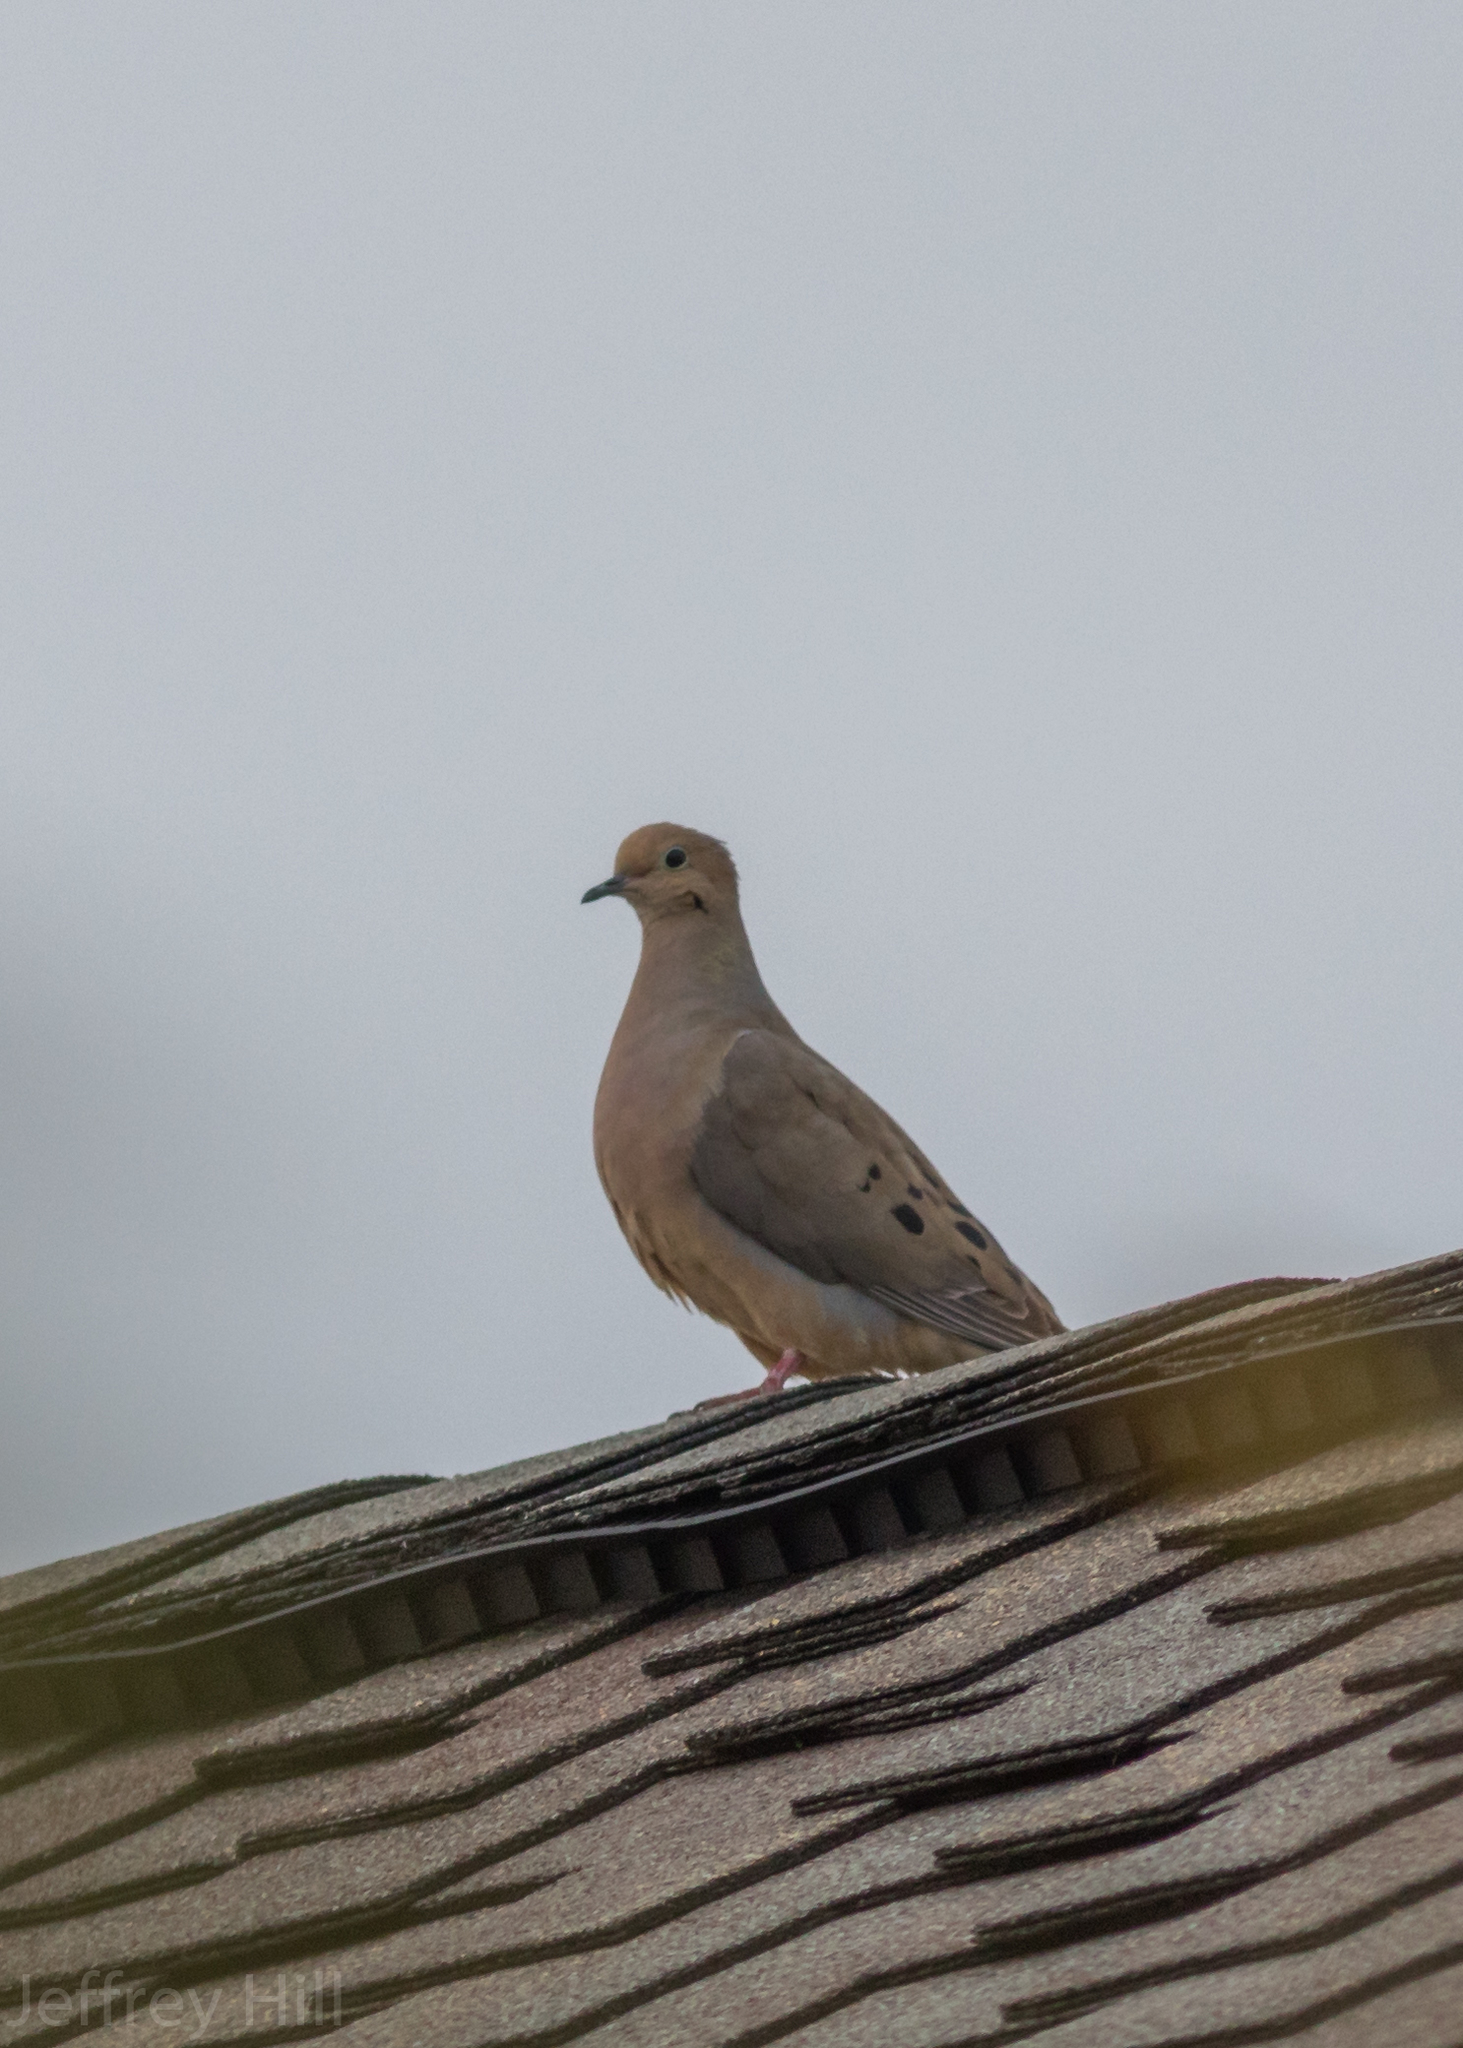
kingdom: Animalia
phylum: Chordata
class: Aves
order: Columbiformes
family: Columbidae
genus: Zenaida
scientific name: Zenaida macroura
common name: Mourning dove
